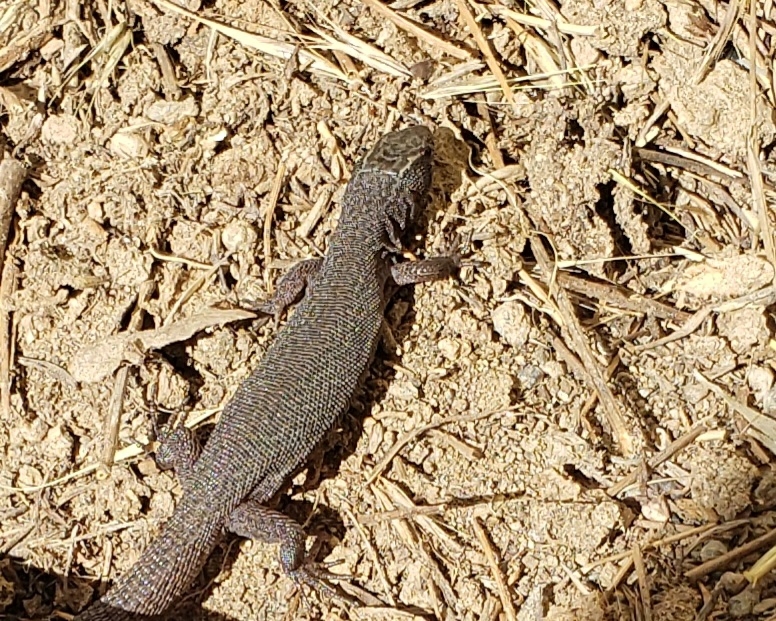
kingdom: Animalia
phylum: Chordata
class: Squamata
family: Xantusiidae
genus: Xantusia
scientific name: Xantusia vigilis
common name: Desert night lizard
